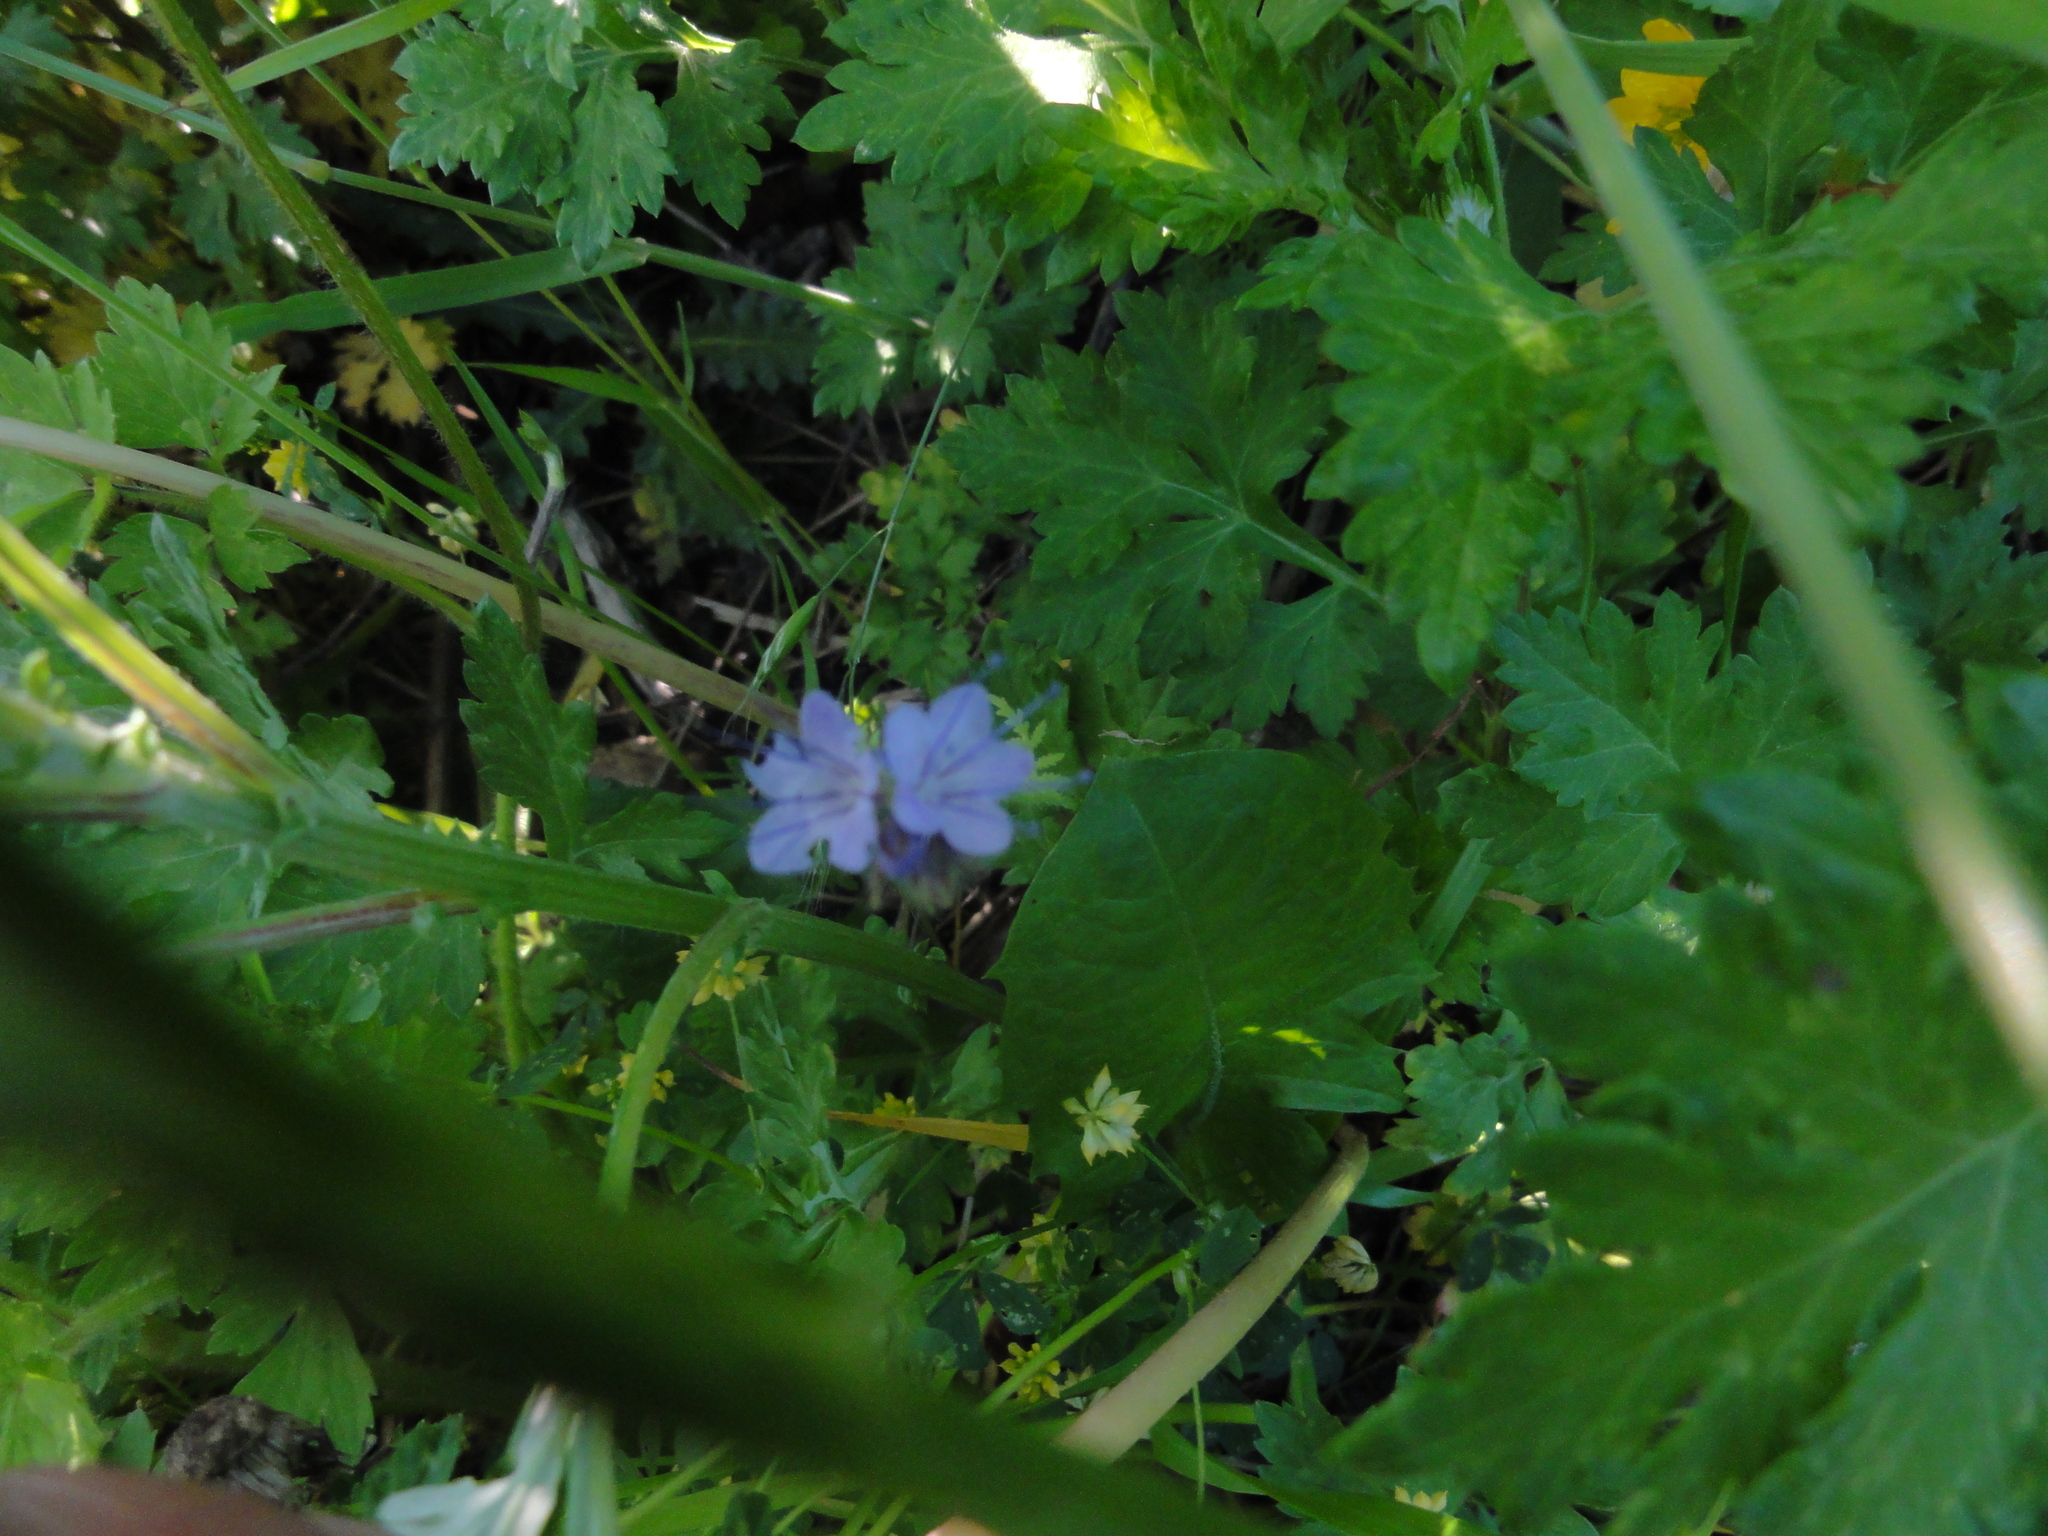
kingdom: Plantae
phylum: Tracheophyta
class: Magnoliopsida
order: Boraginales
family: Hydrophyllaceae
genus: Phacelia
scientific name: Phacelia tanacetifolia
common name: Phacelia
